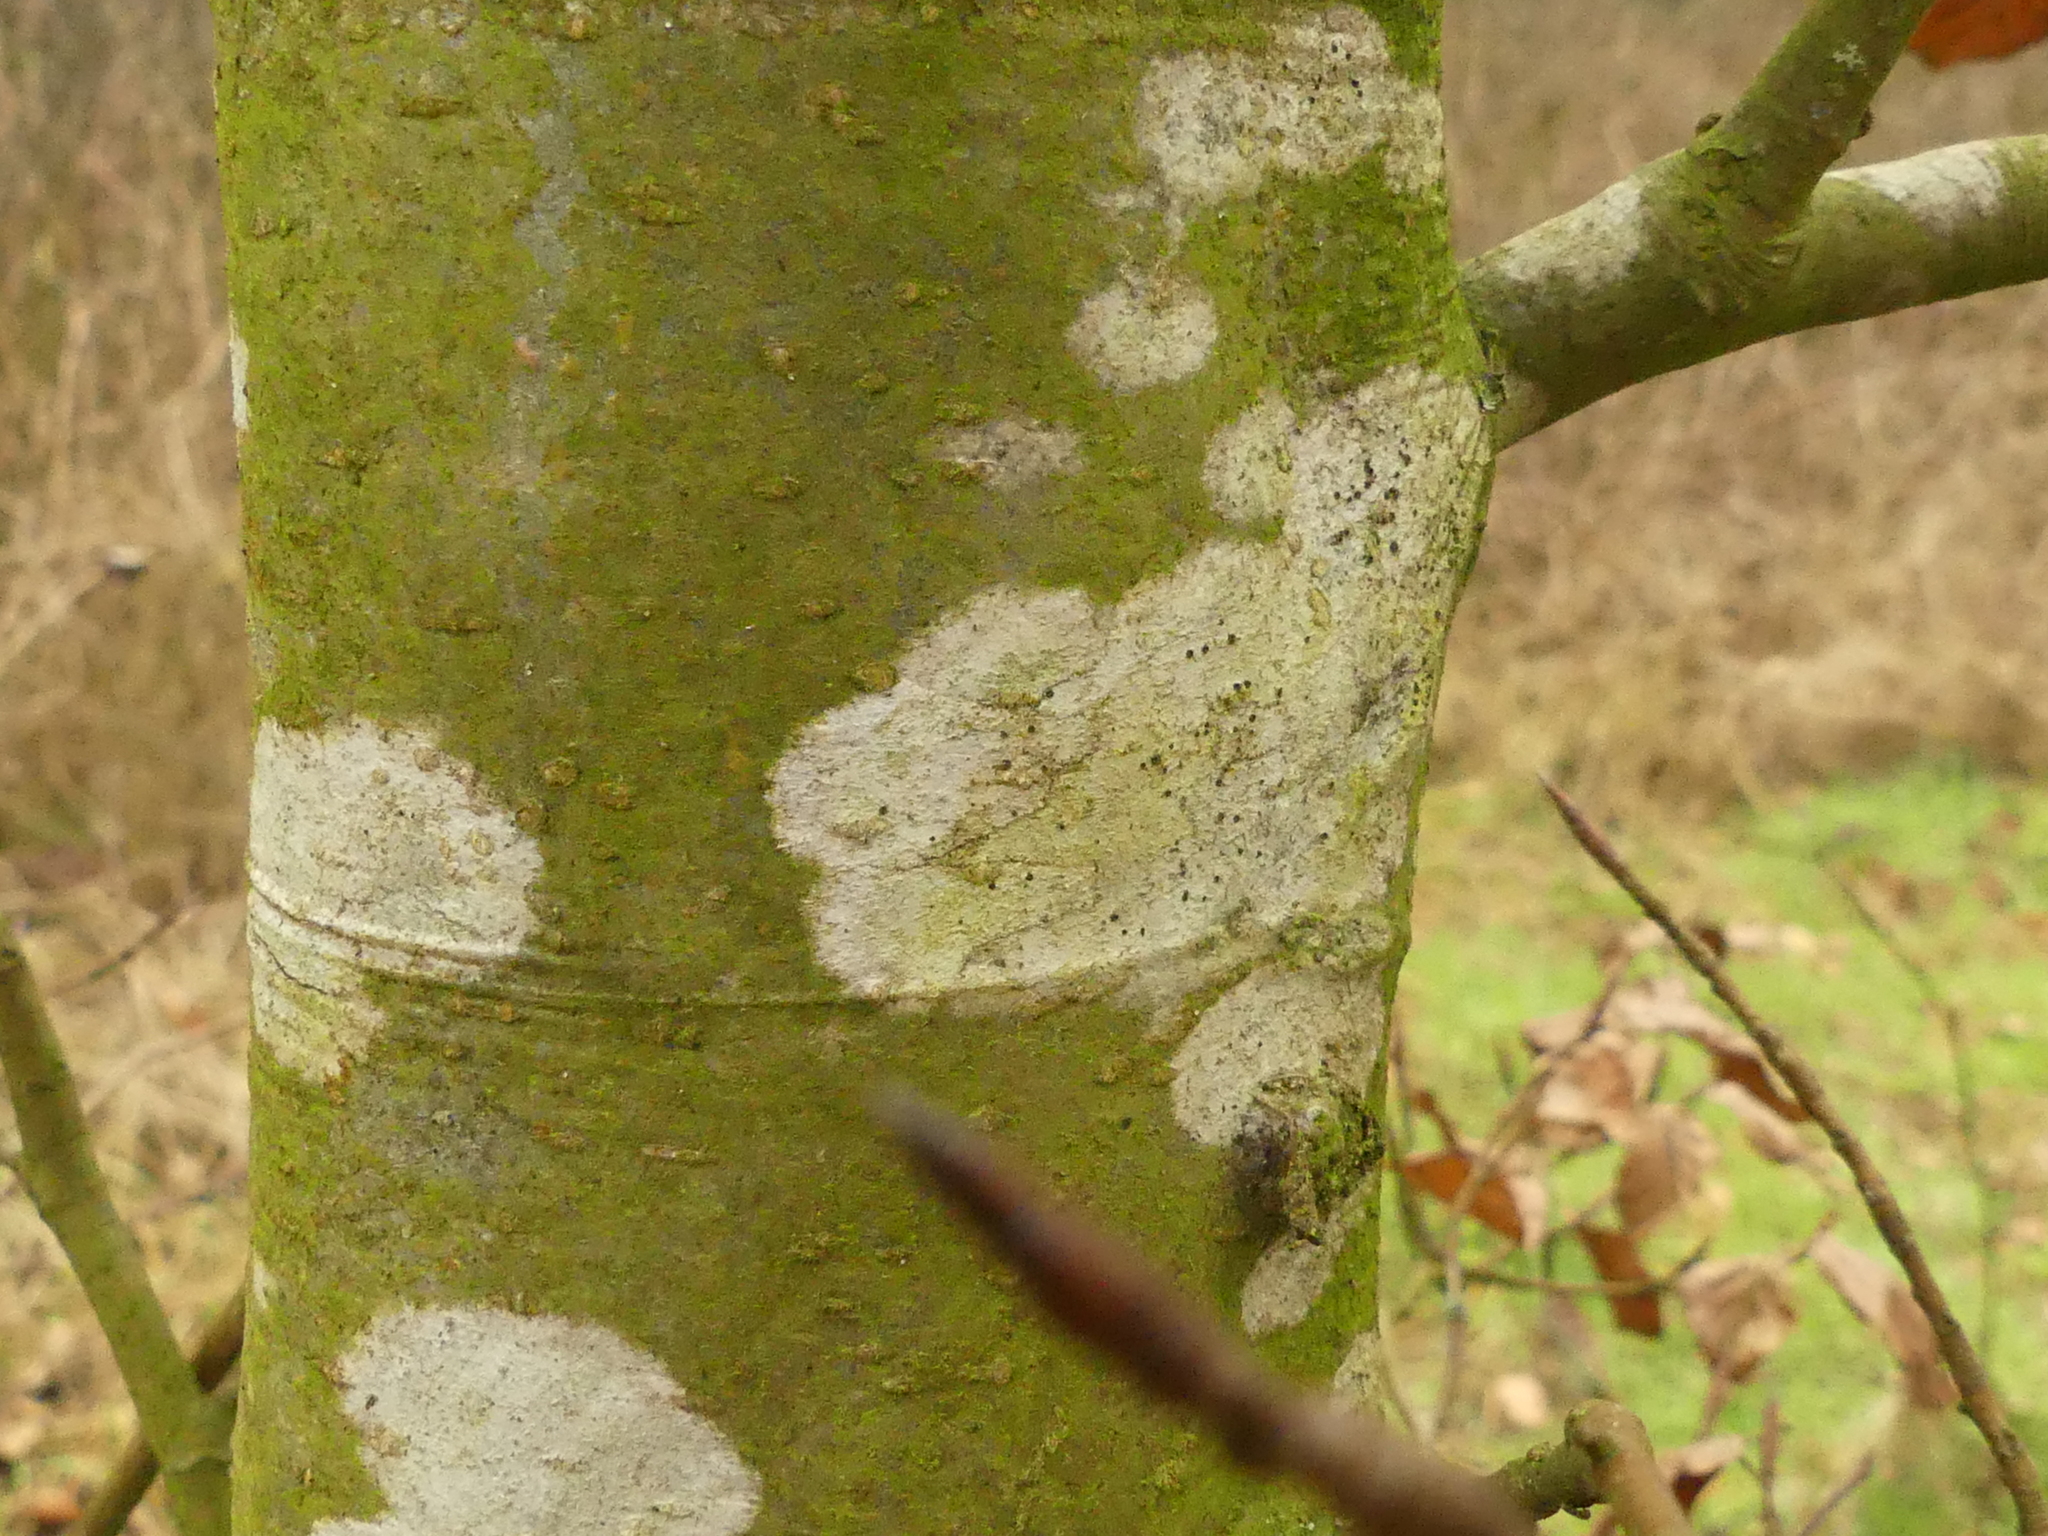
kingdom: Fungi
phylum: Ascomycota
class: Lecanoromycetes
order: Lecanorales
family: Lecanoraceae
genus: Lecidella
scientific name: Lecidella elaeochroma
